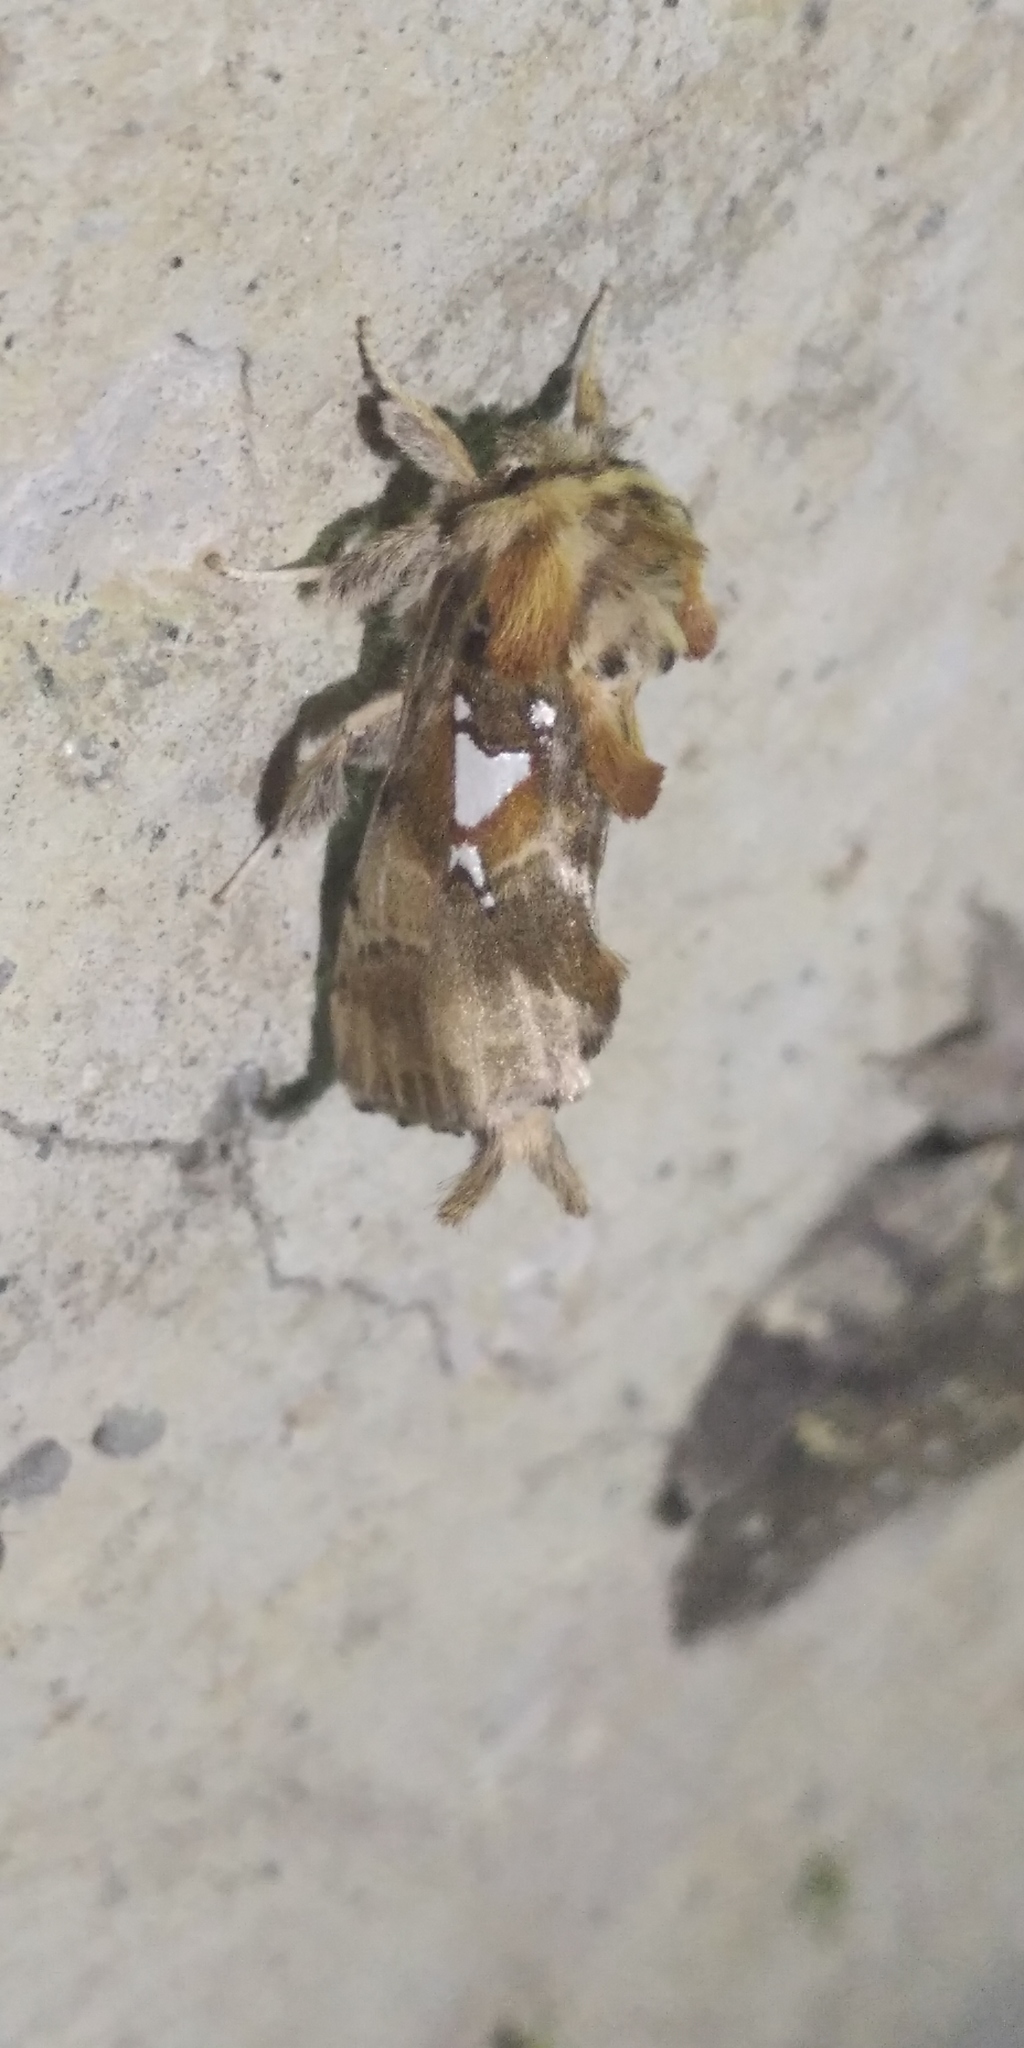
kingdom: Animalia
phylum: Arthropoda
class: Insecta
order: Lepidoptera
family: Notodontidae
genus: Spatalia
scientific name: Spatalia argentina
